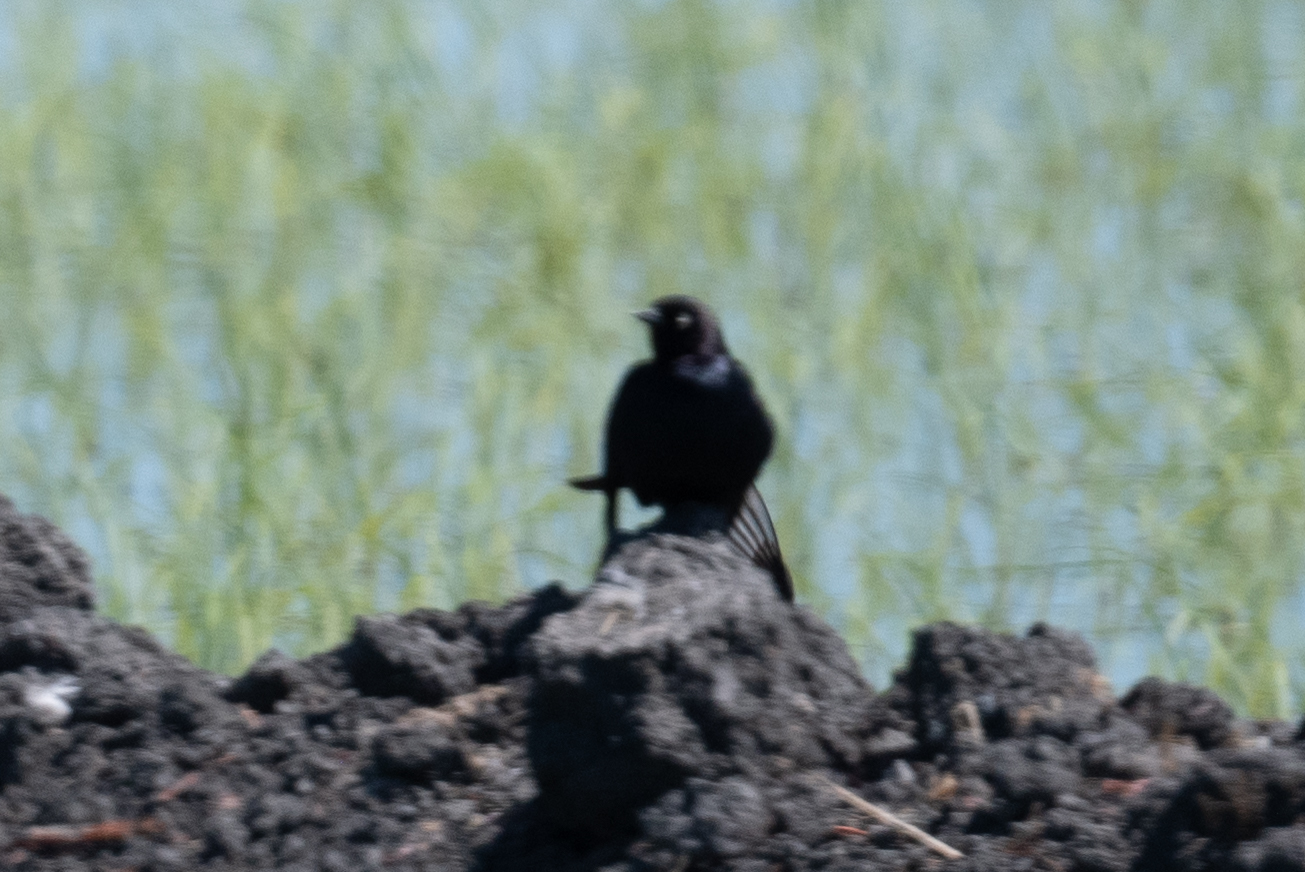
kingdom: Animalia
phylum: Chordata
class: Aves
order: Passeriformes
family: Icteridae
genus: Euphagus
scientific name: Euphagus cyanocephalus
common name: Brewer's blackbird
